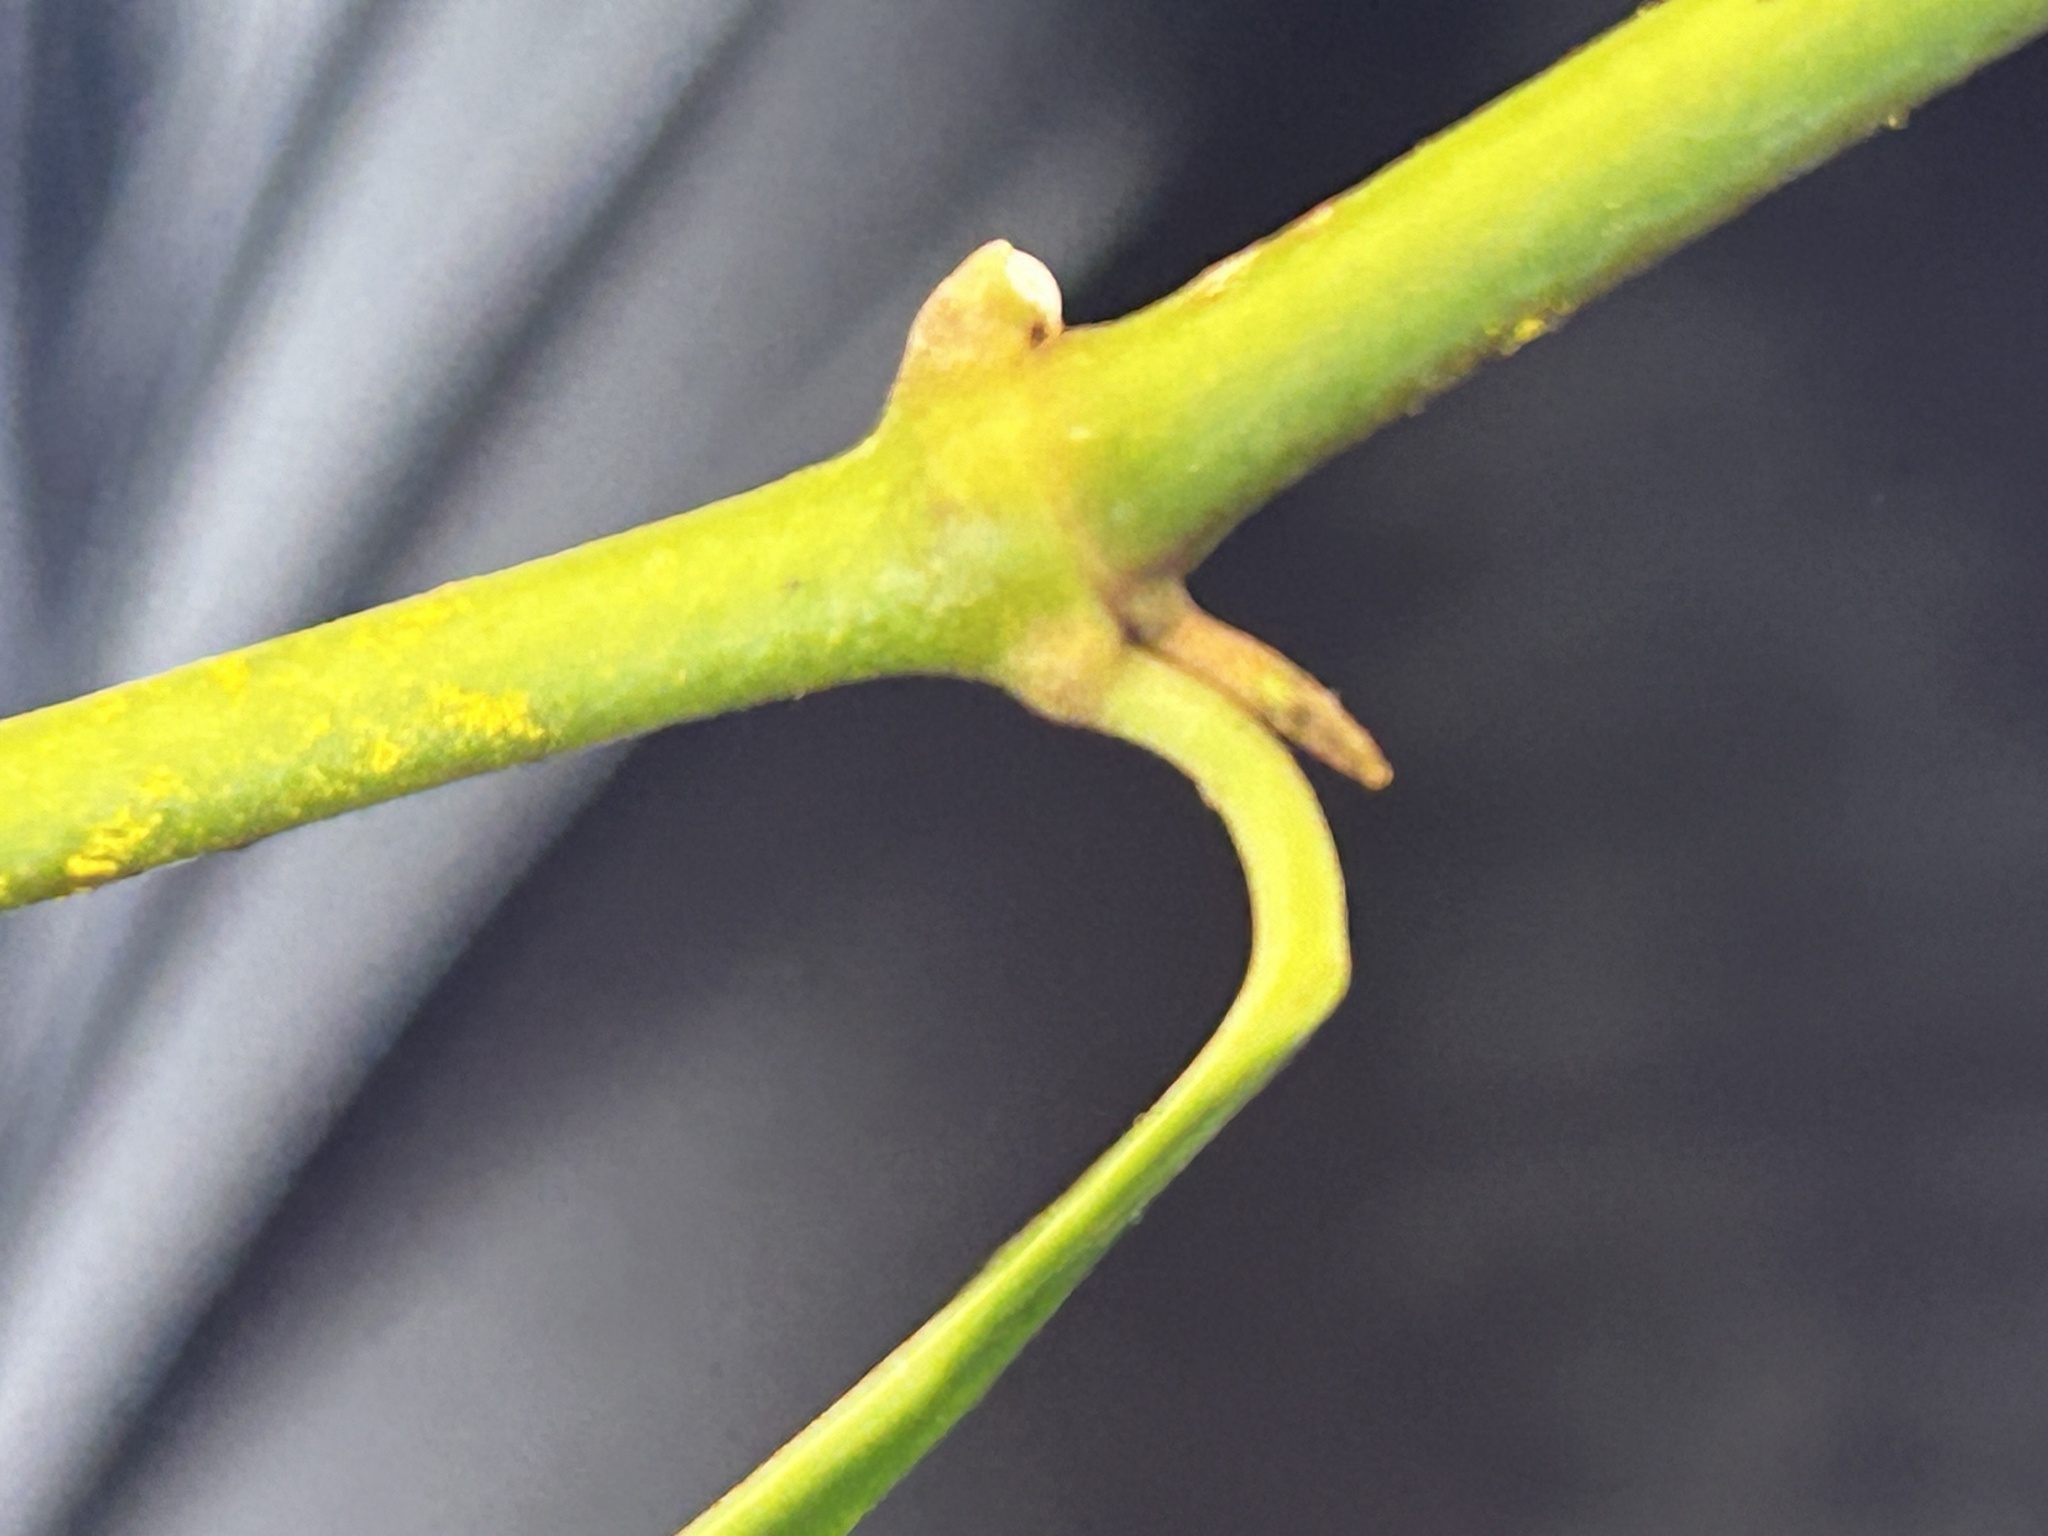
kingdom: Plantae
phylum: Tracheophyta
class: Magnoliopsida
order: Gentianales
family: Apocynaceae
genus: Secamone
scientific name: Secamone alpini
